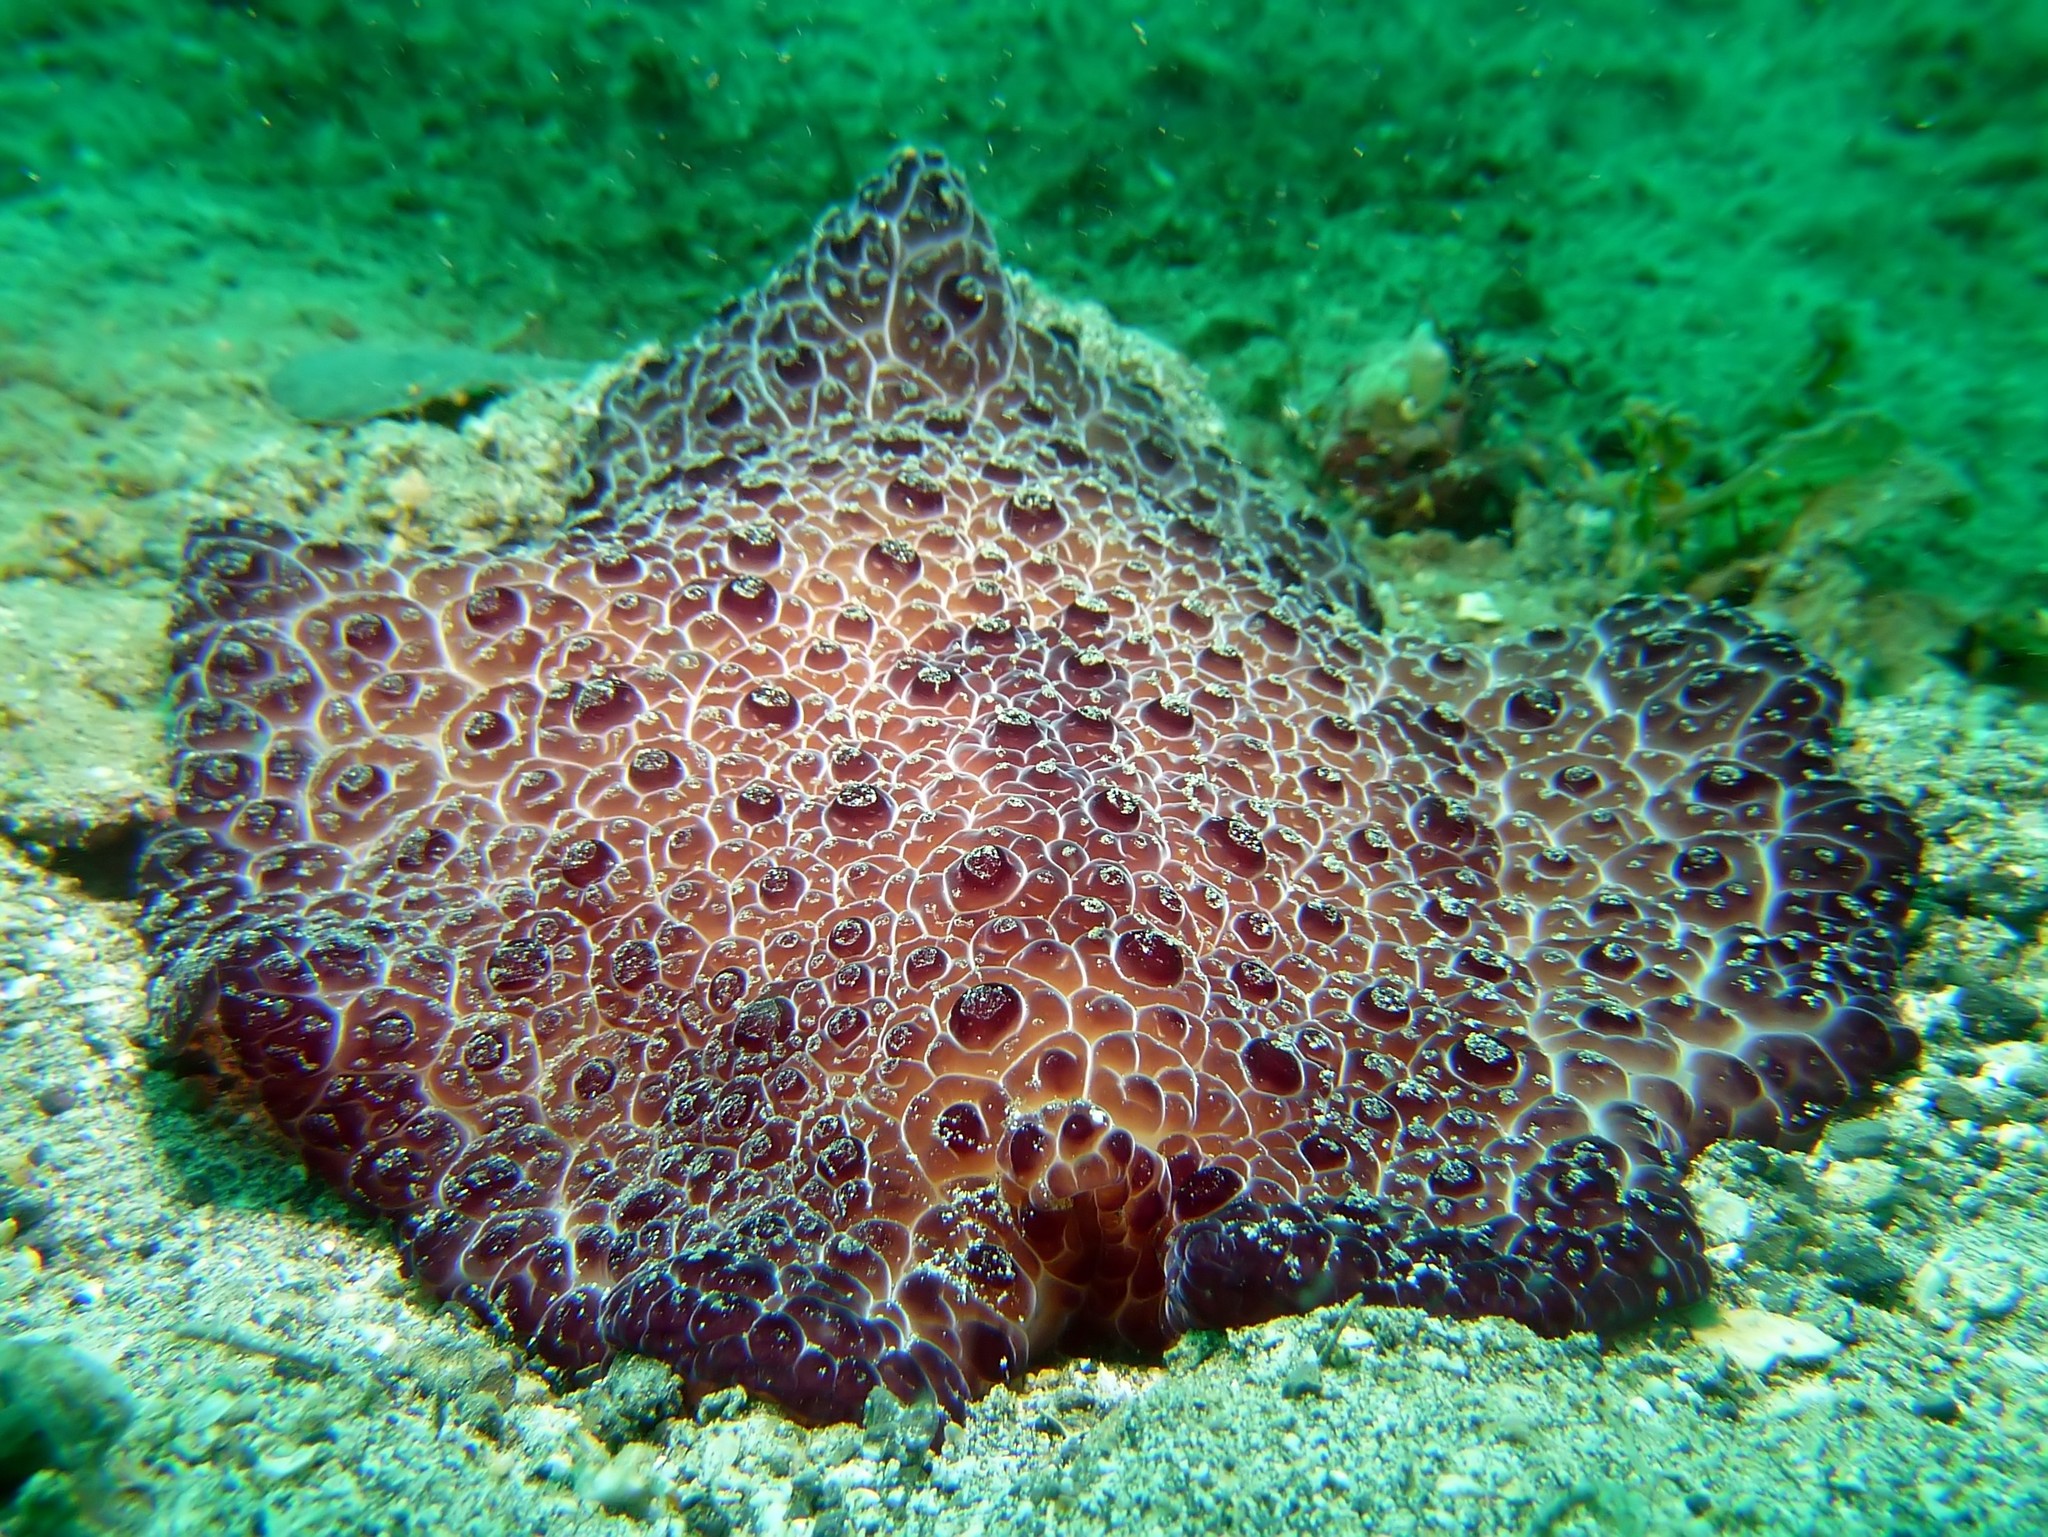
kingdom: Animalia
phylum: Mollusca
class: Gastropoda
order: Pleurobranchida
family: Pleurobranchidae
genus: Pleurobranchus
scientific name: Pleurobranchus grandis
